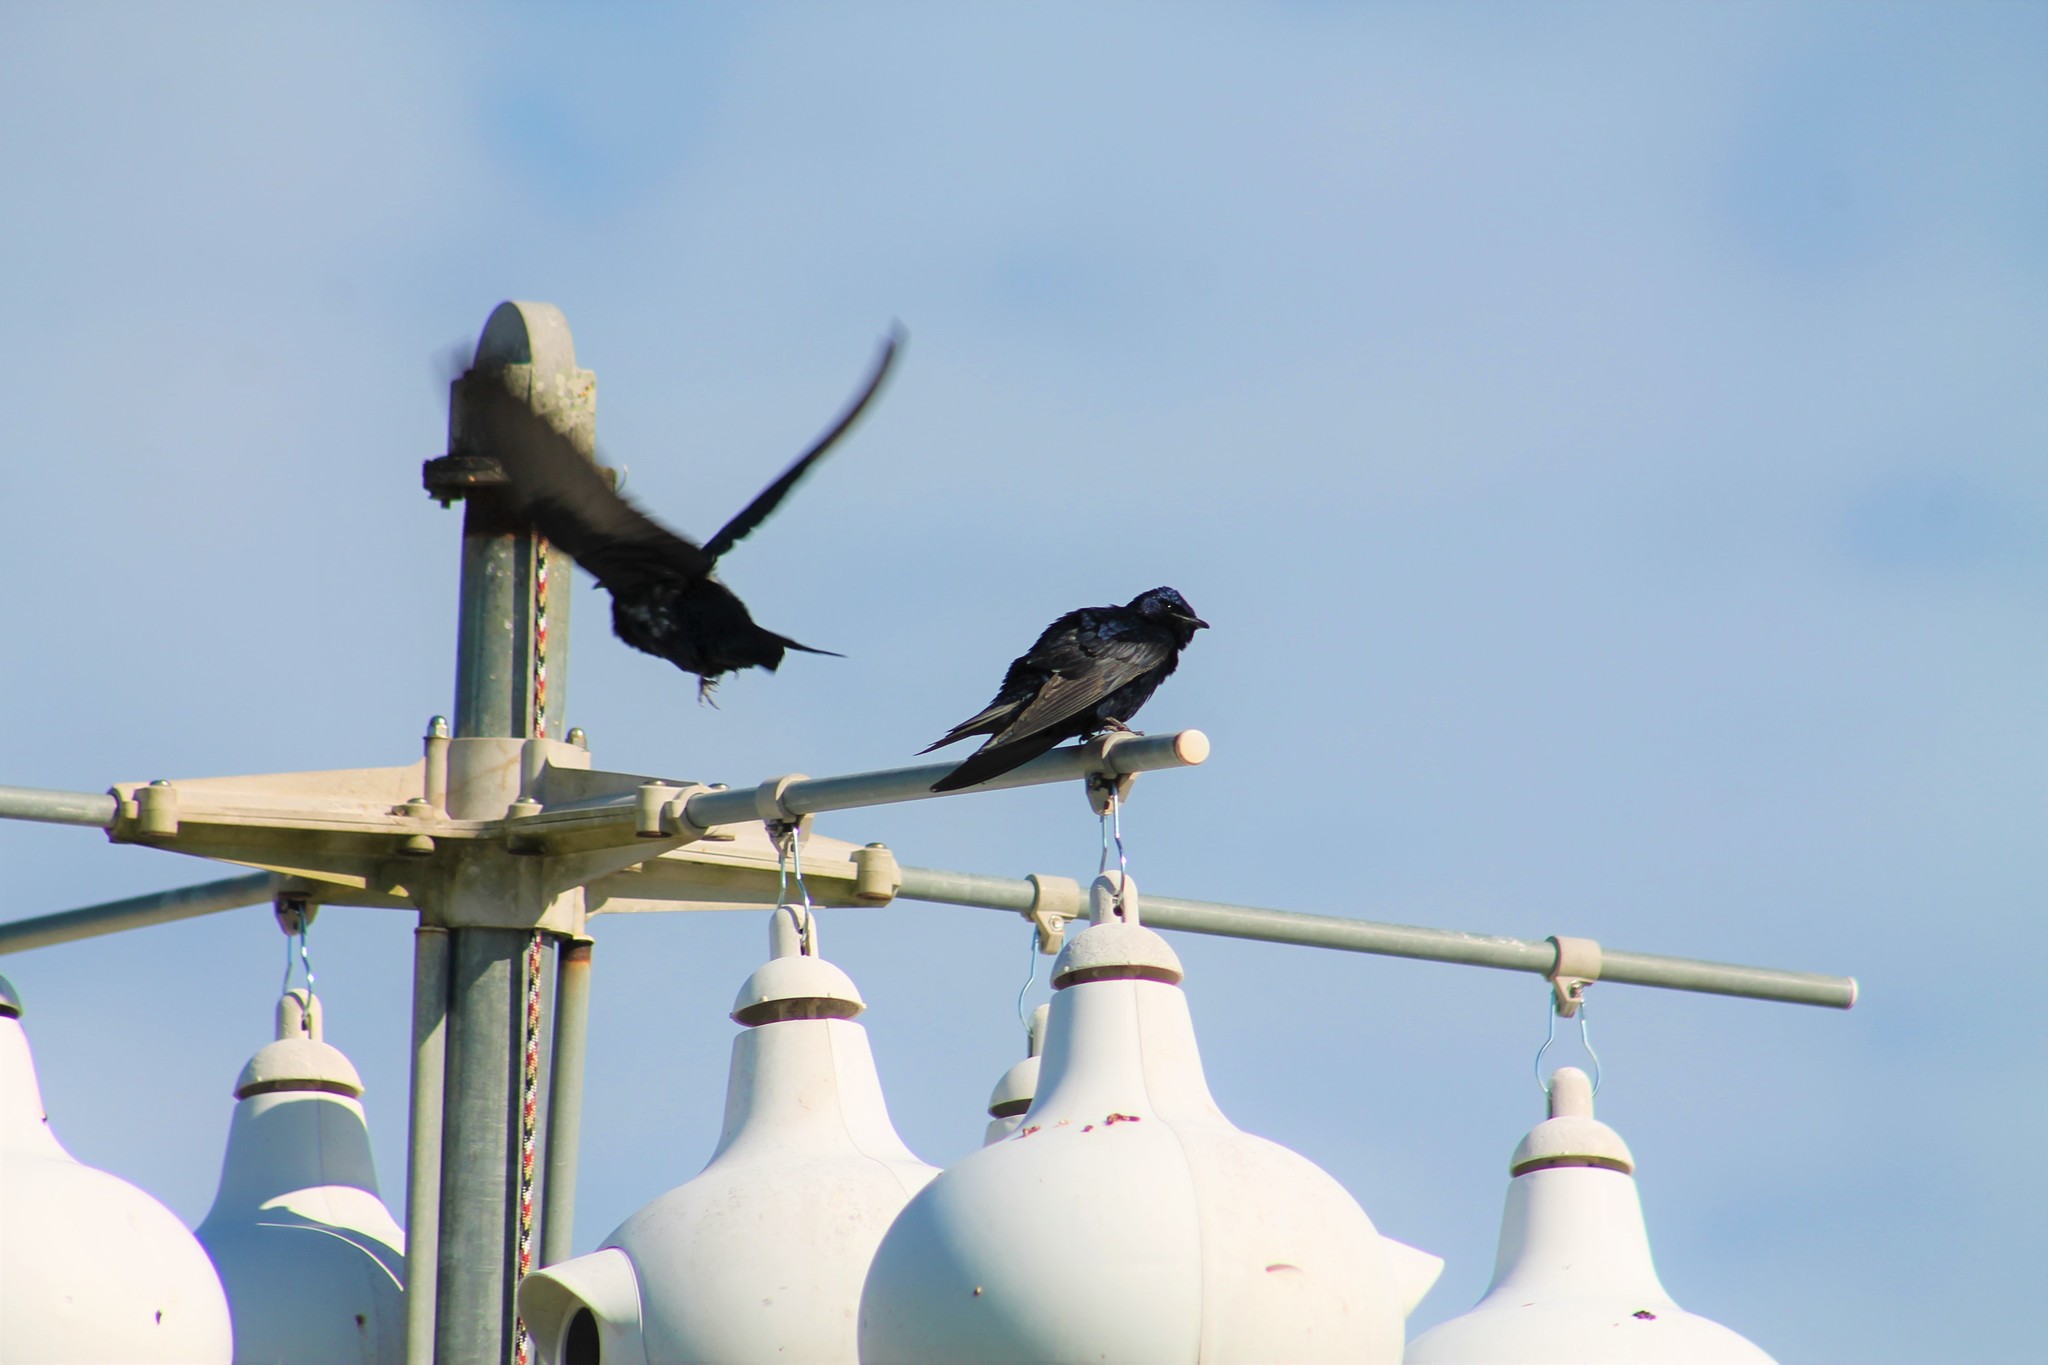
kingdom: Animalia
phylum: Chordata
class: Aves
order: Passeriformes
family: Hirundinidae
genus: Progne
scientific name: Progne subis
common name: Purple martin
